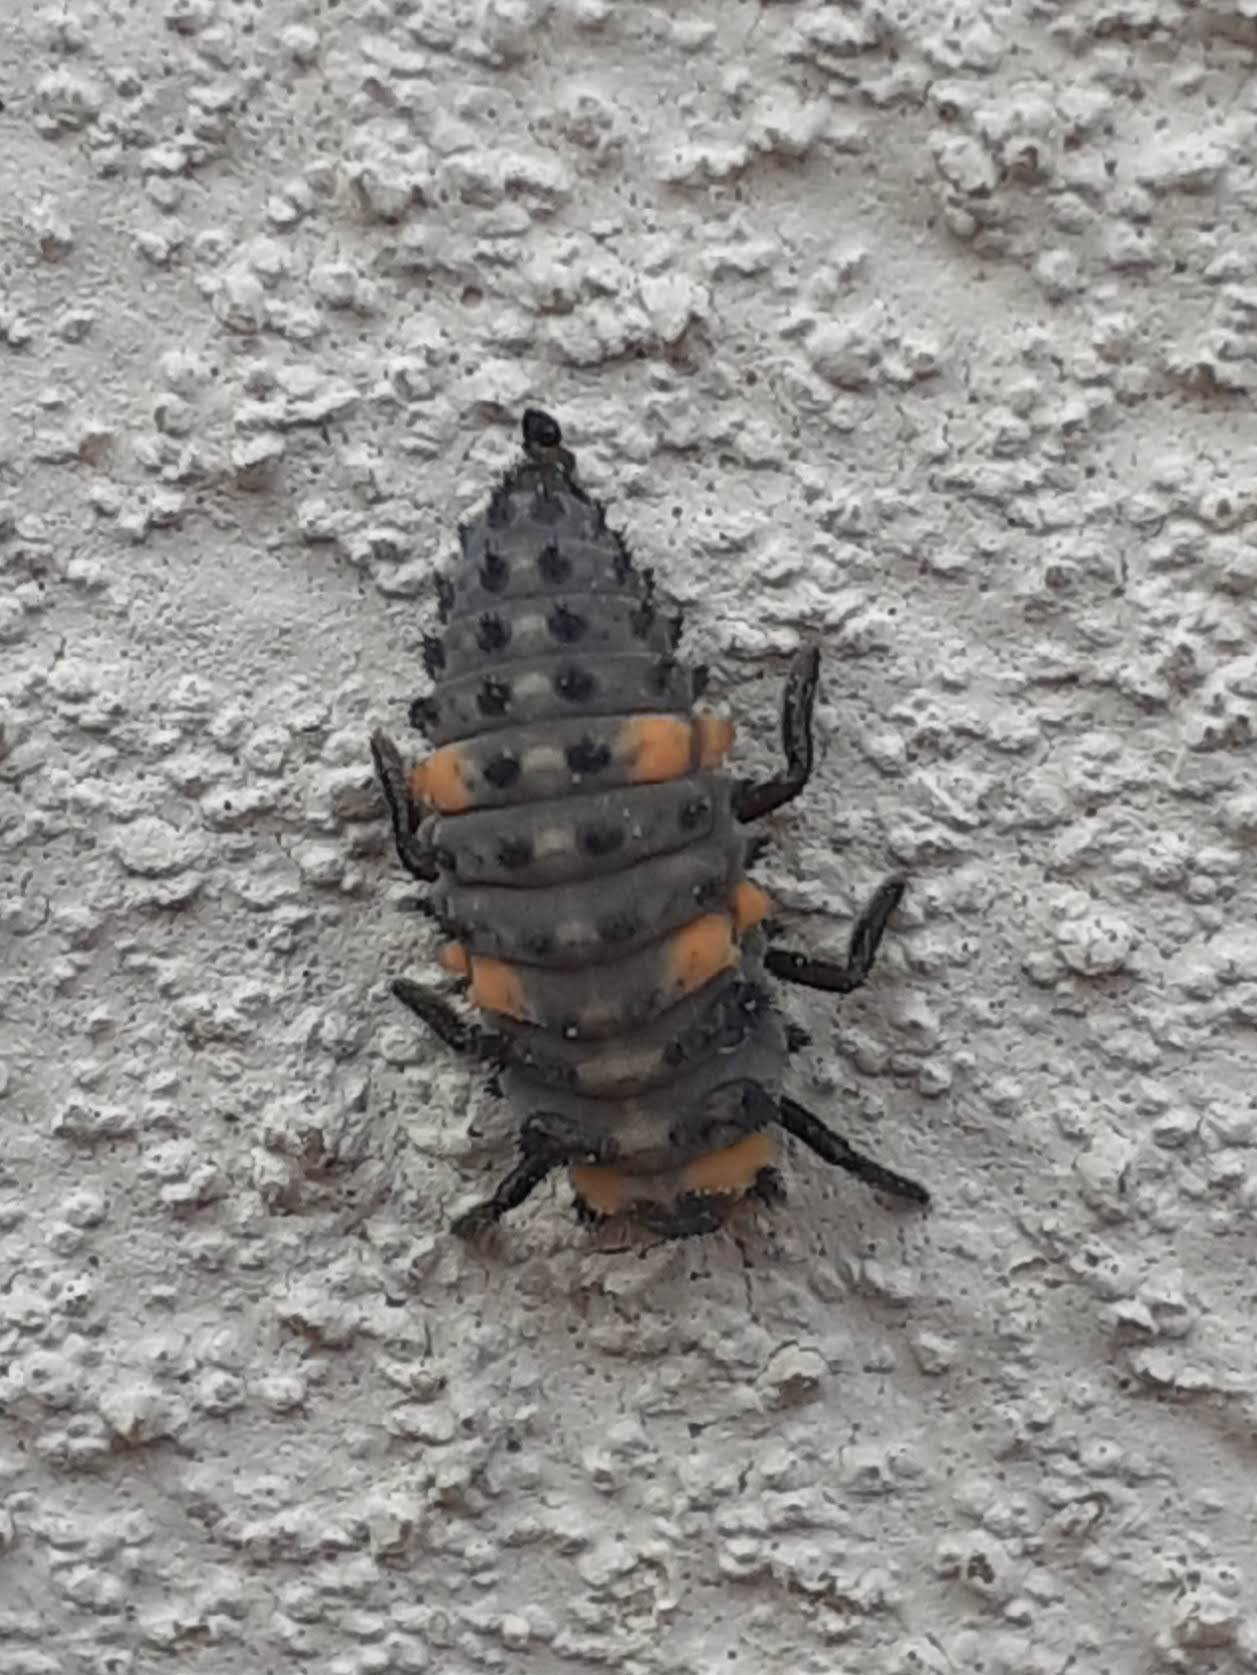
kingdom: Animalia
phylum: Arthropoda
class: Insecta
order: Coleoptera
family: Coccinellidae
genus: Coccinella
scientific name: Coccinella septempunctata
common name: Sevenspotted lady beetle
